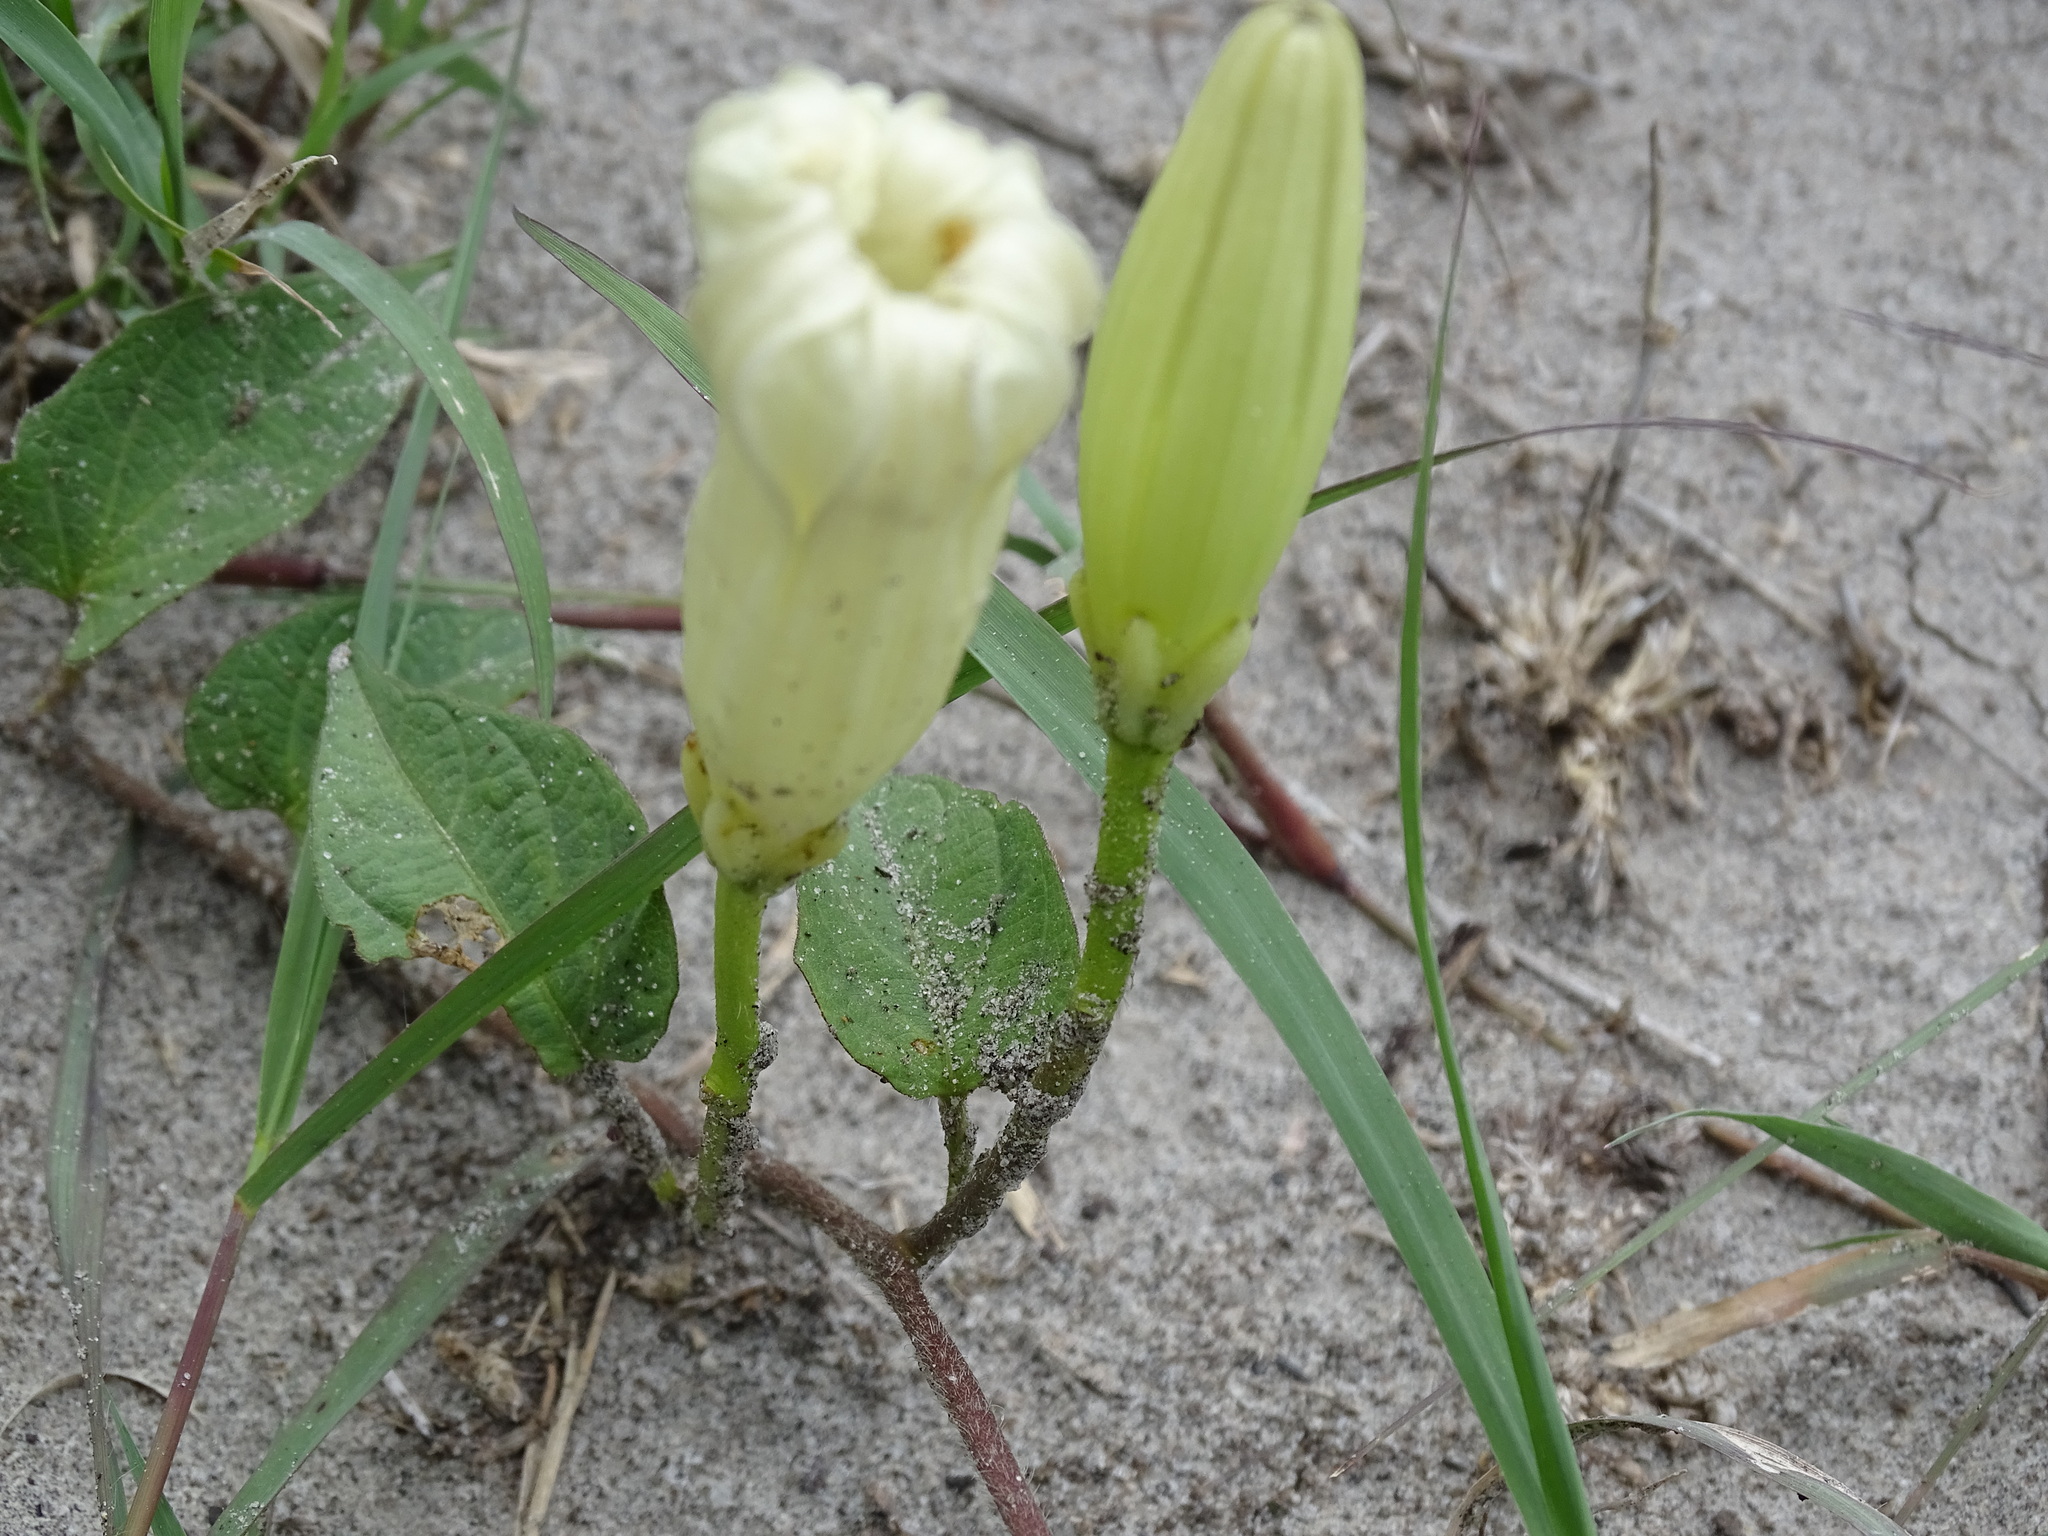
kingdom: Plantae
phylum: Tracheophyta
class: Magnoliopsida
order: Solanales
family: Convolvulaceae
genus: Ipomoea
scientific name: Ipomoea proxima
